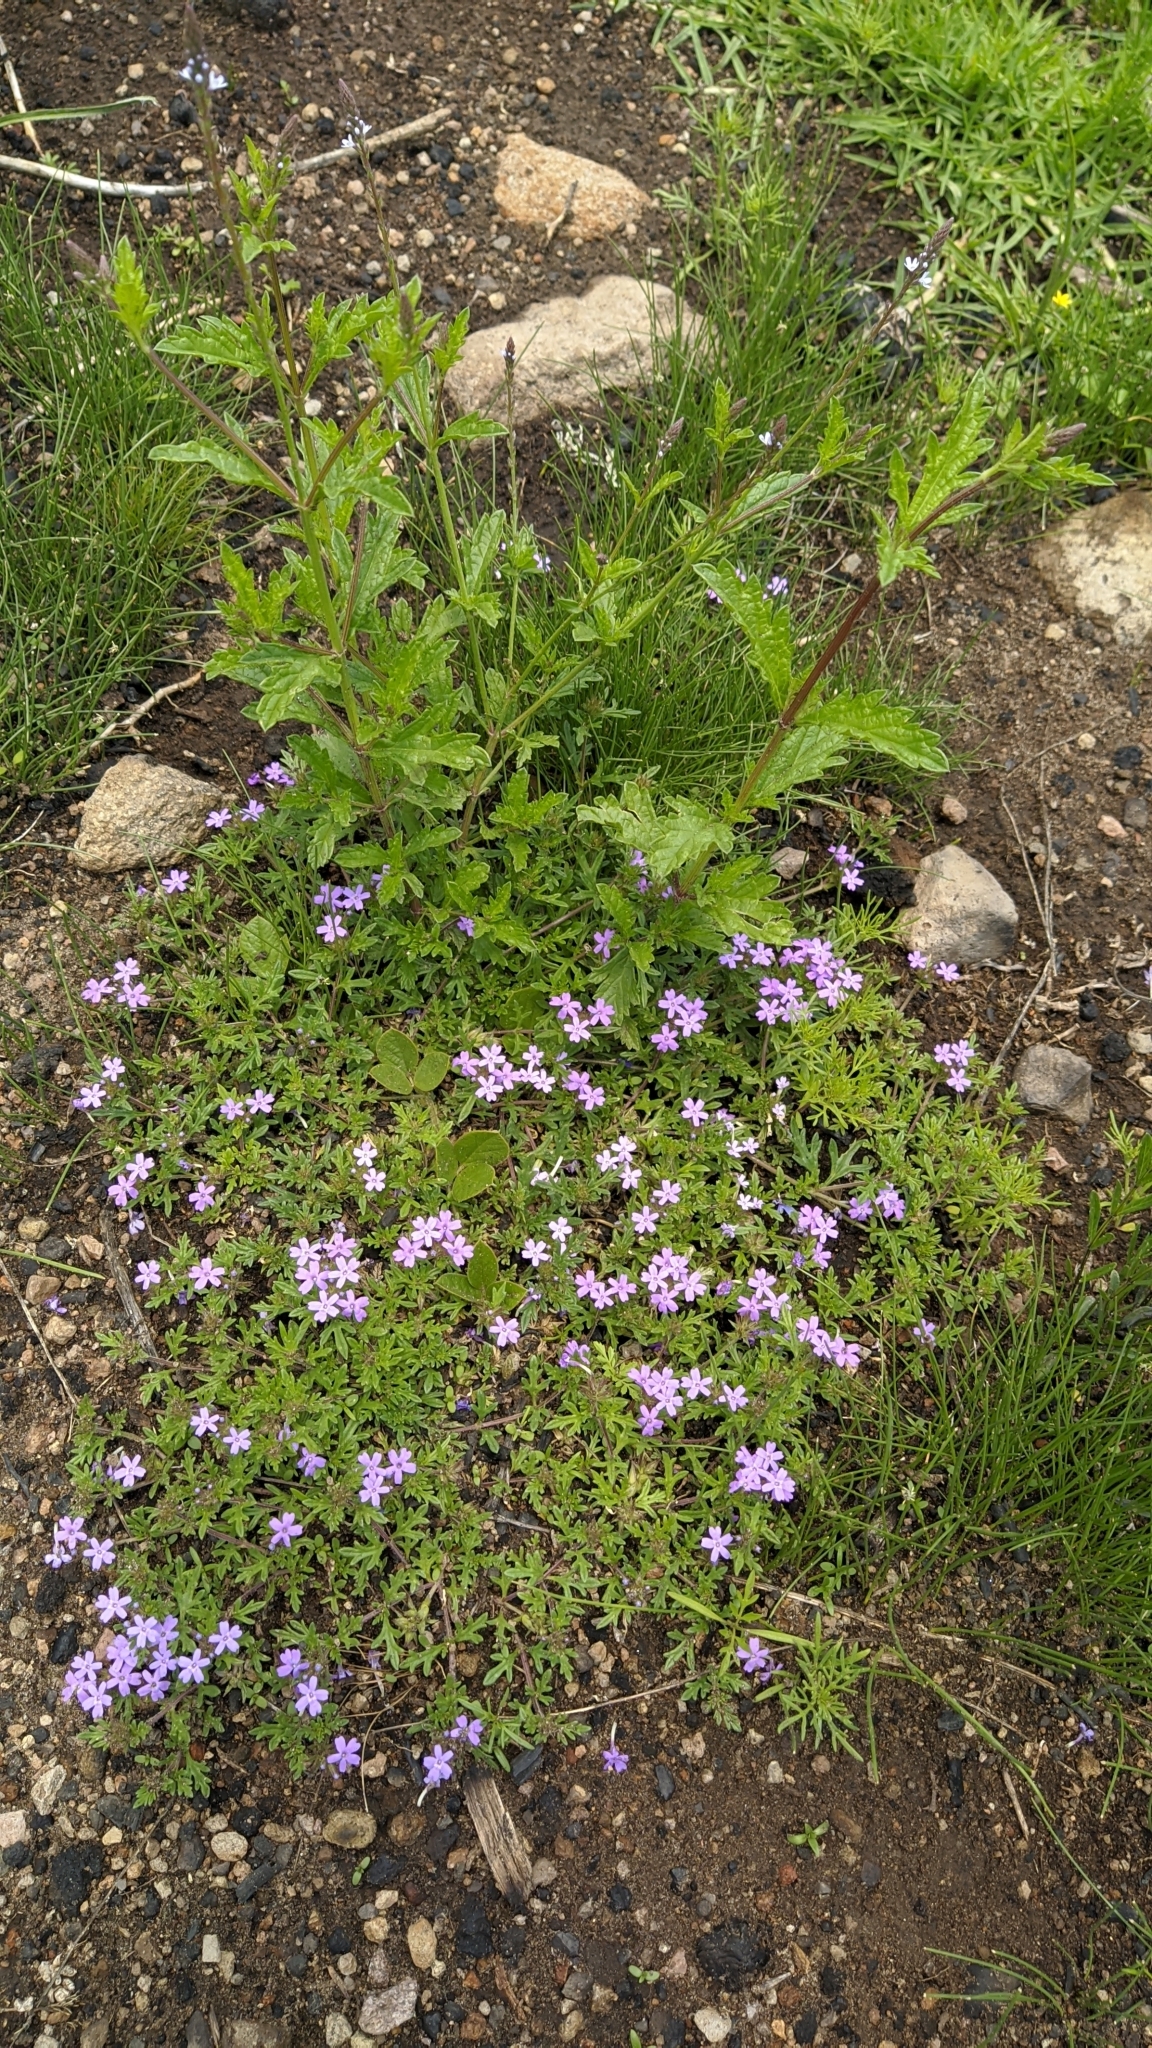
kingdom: Plantae
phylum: Tracheophyta
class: Magnoliopsida
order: Lamiales
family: Verbenaceae
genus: Verbena
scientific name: Verbena bipinnatifida
